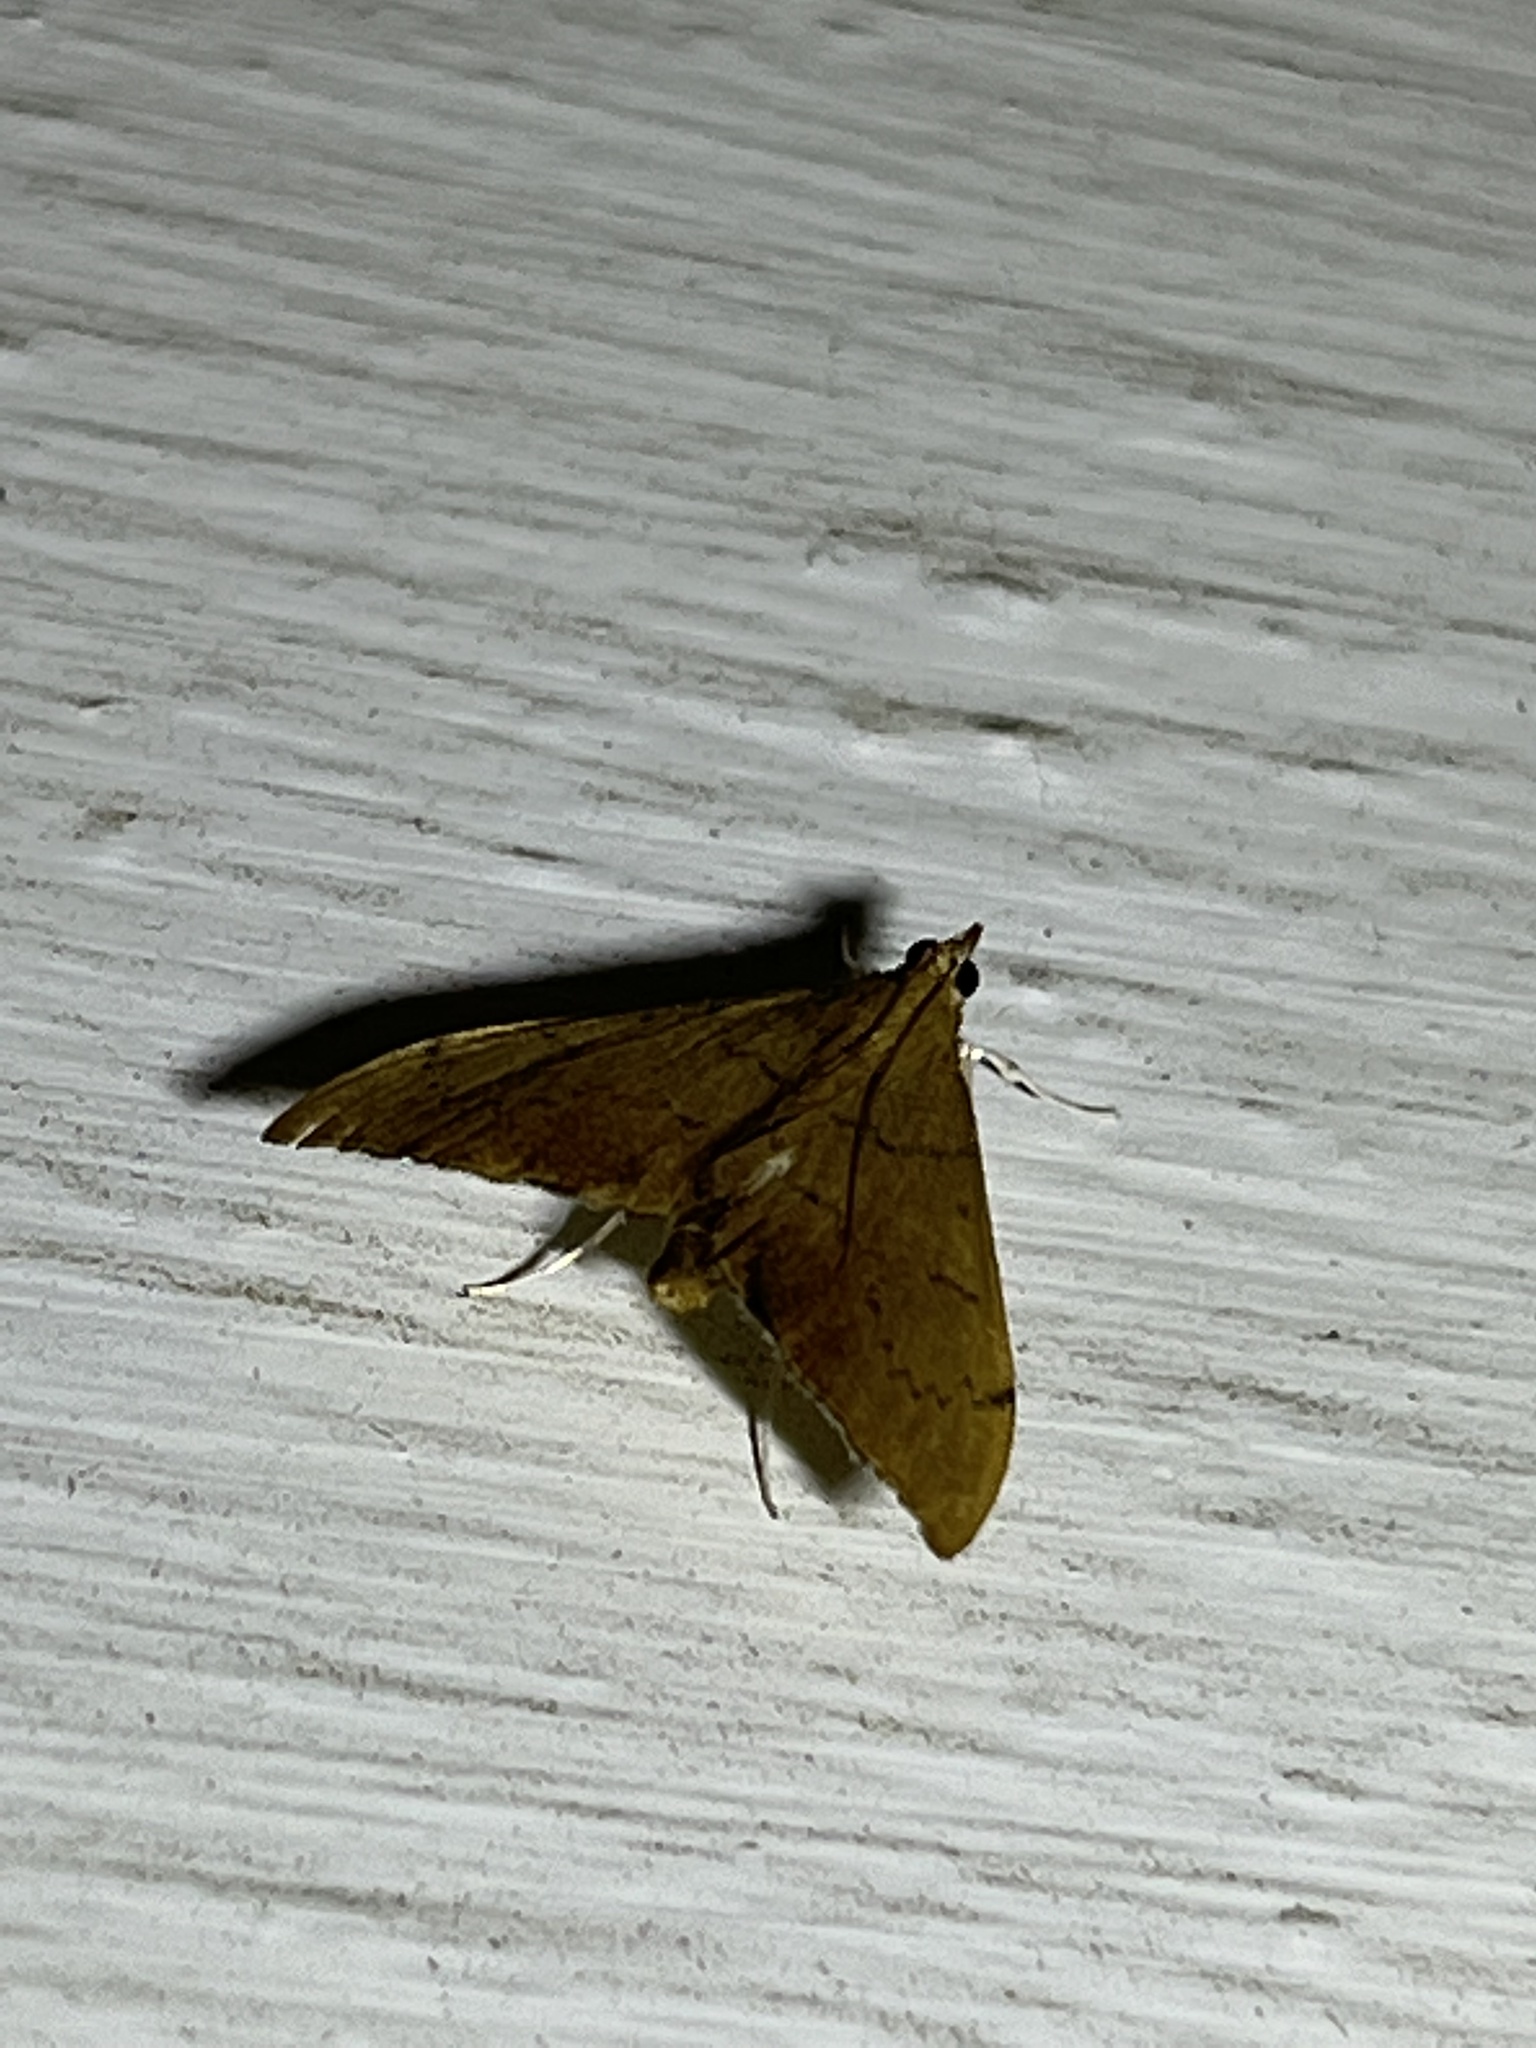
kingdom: Animalia
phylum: Arthropoda
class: Insecta
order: Lepidoptera
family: Crambidae
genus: Sericoplaga
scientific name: Sericoplaga externalis
